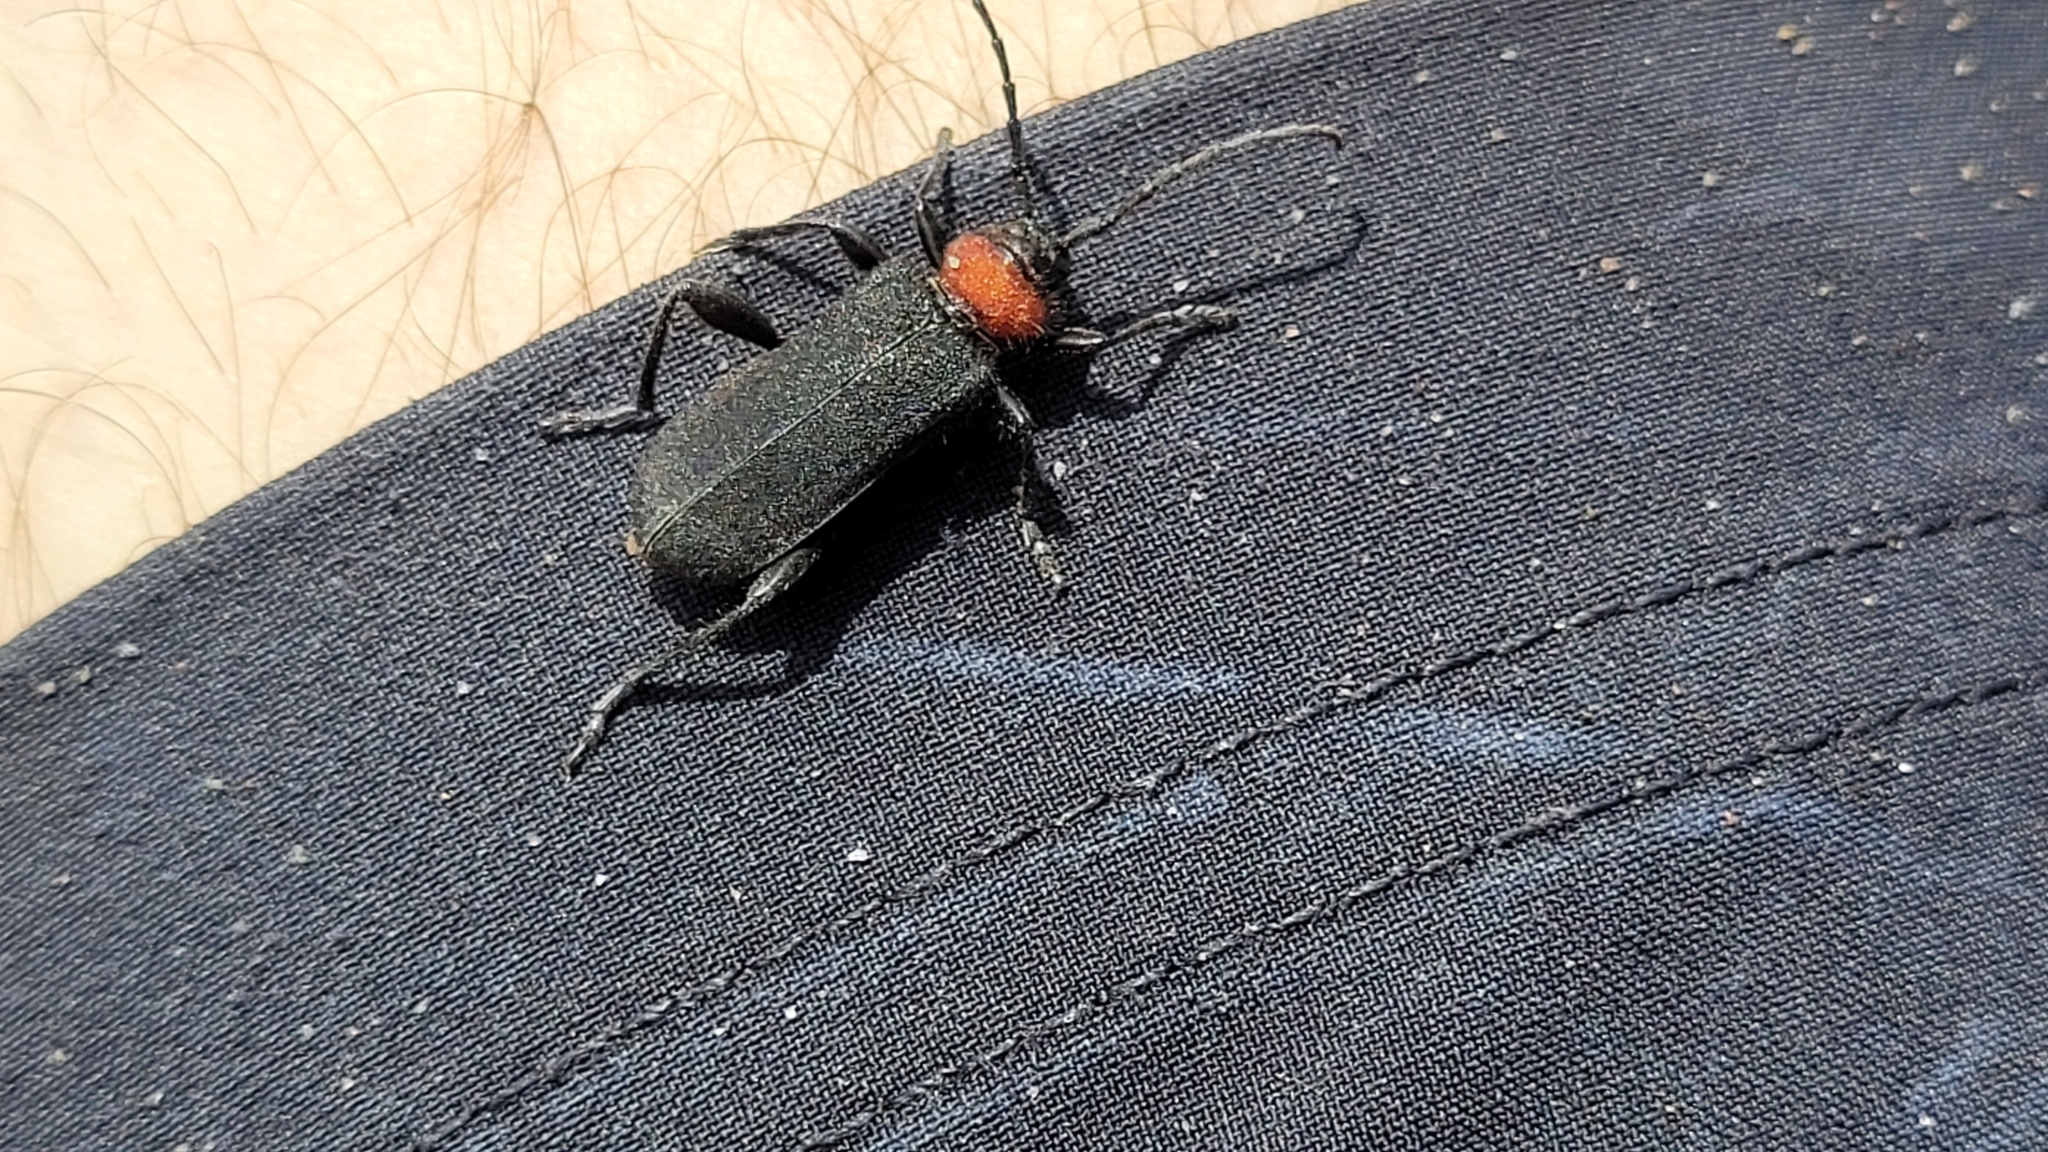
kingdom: Animalia
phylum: Arthropoda
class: Insecta
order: Coleoptera
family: Cerambycidae
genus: Ropalopus
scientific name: Ropalopus sanguinicollis
